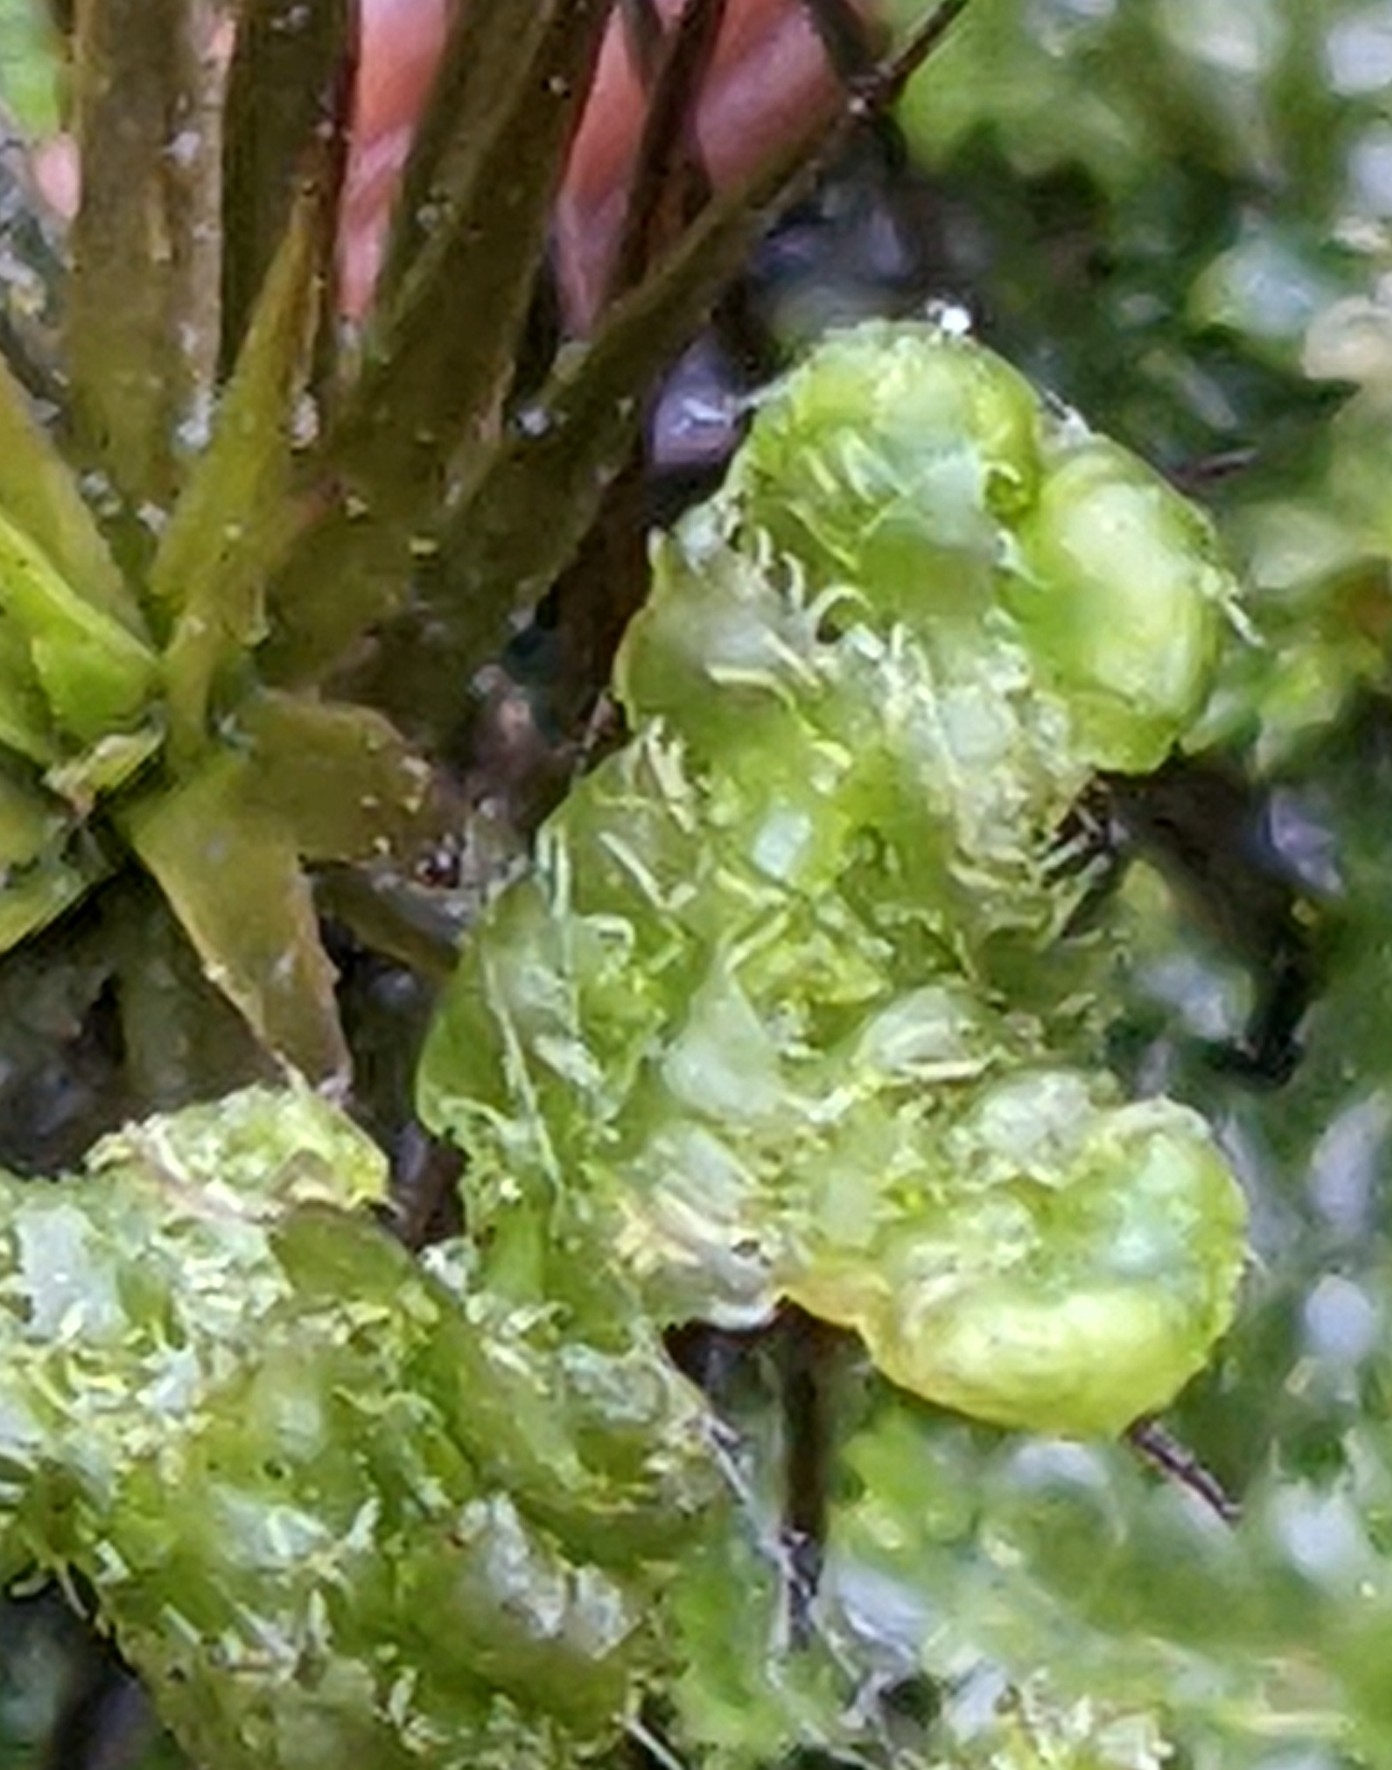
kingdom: Plantae
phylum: Marchantiophyta
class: Jungermanniopsida
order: Ptilidiales
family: Ptilidiaceae
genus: Ptilidium
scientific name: Ptilidium ciliare
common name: Ciliate fringewort
